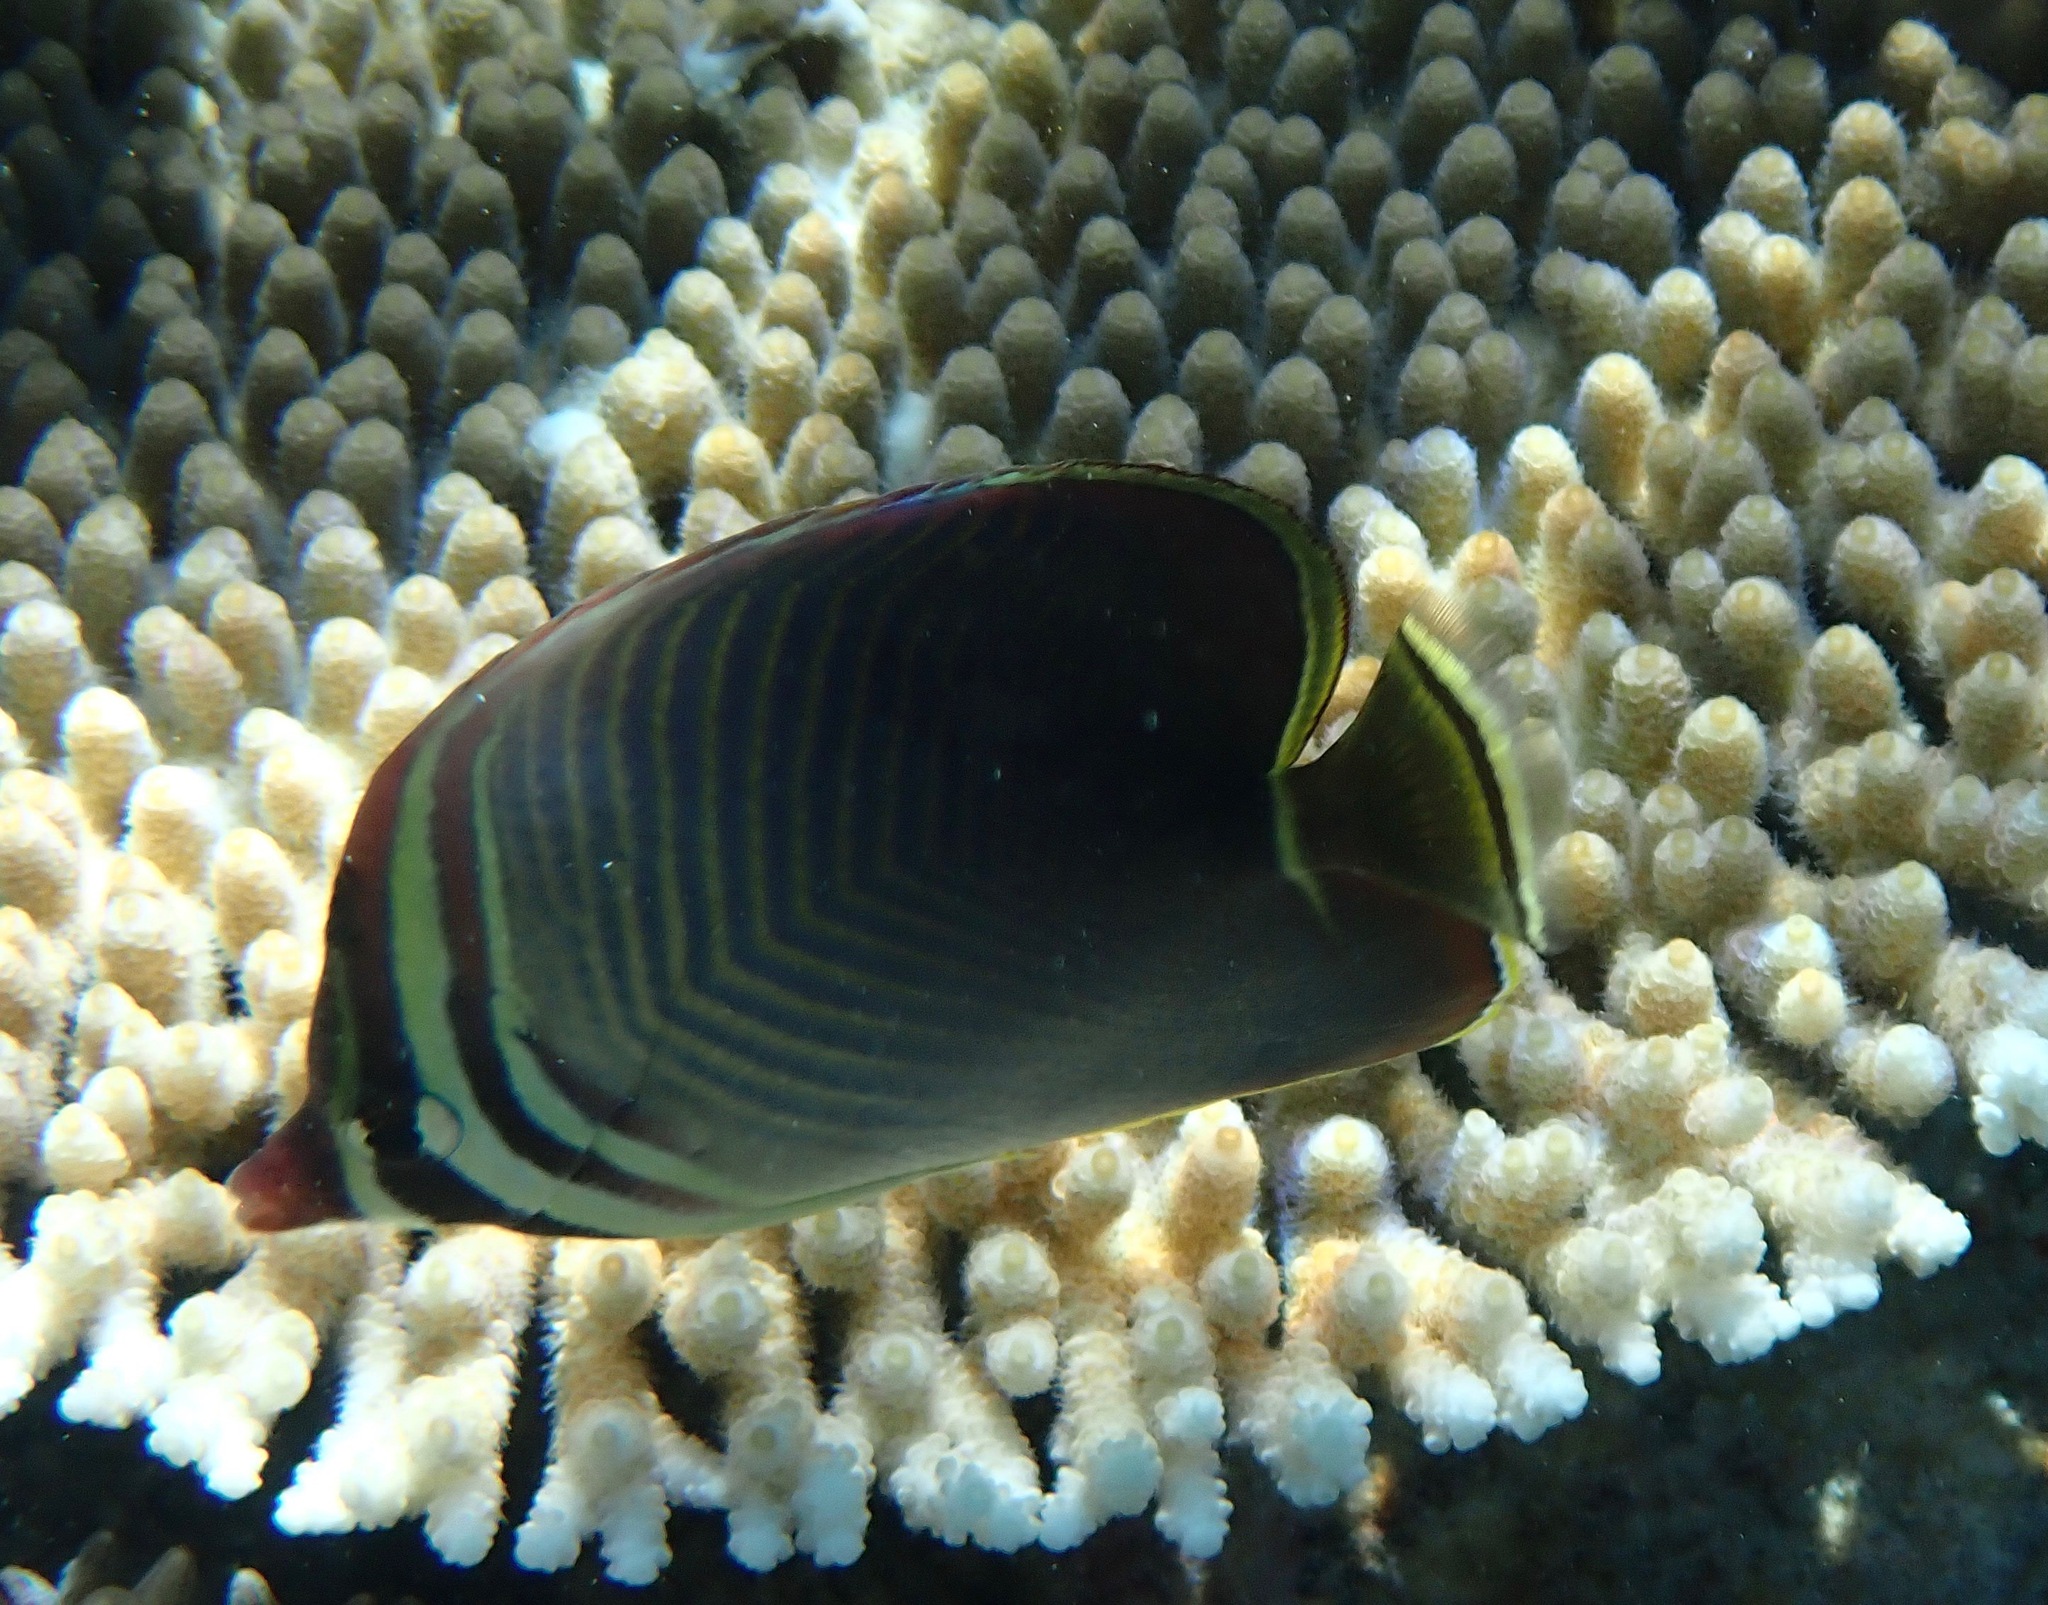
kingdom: Animalia
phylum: Chordata
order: Perciformes
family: Chaetodontidae
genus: Chaetodon
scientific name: Chaetodon baronessa
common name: Triangular butterflyfish
